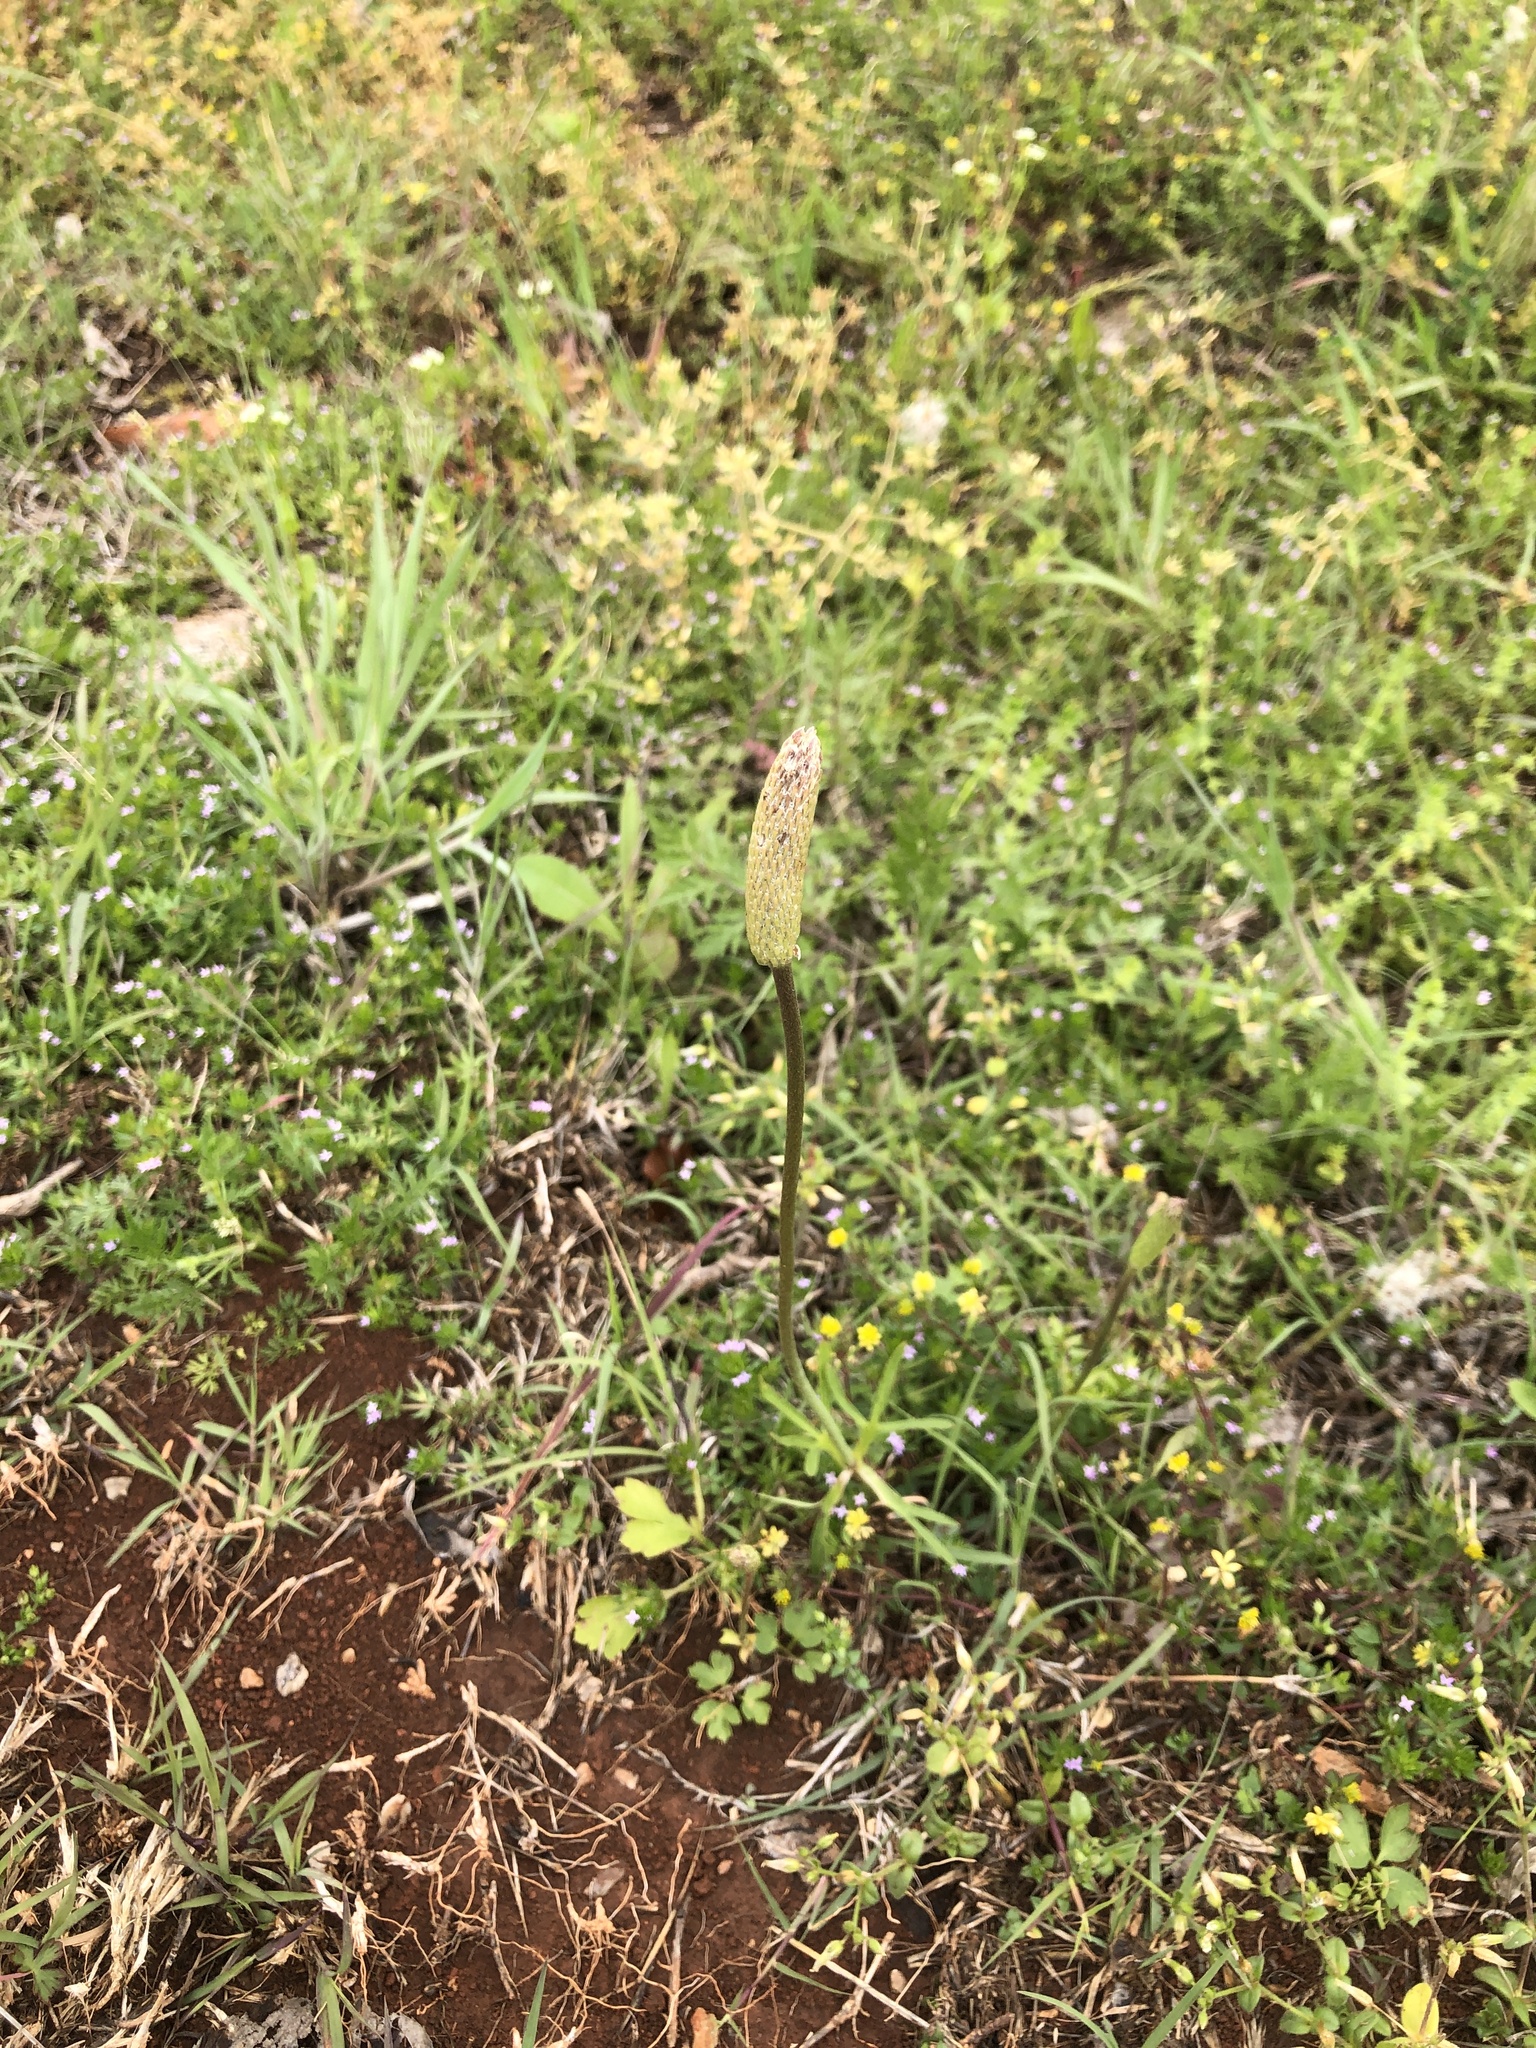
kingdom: Plantae
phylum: Tracheophyta
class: Magnoliopsida
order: Ranunculales
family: Ranunculaceae
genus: Anemone
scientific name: Anemone berlandieri
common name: Ten-petal anemone
